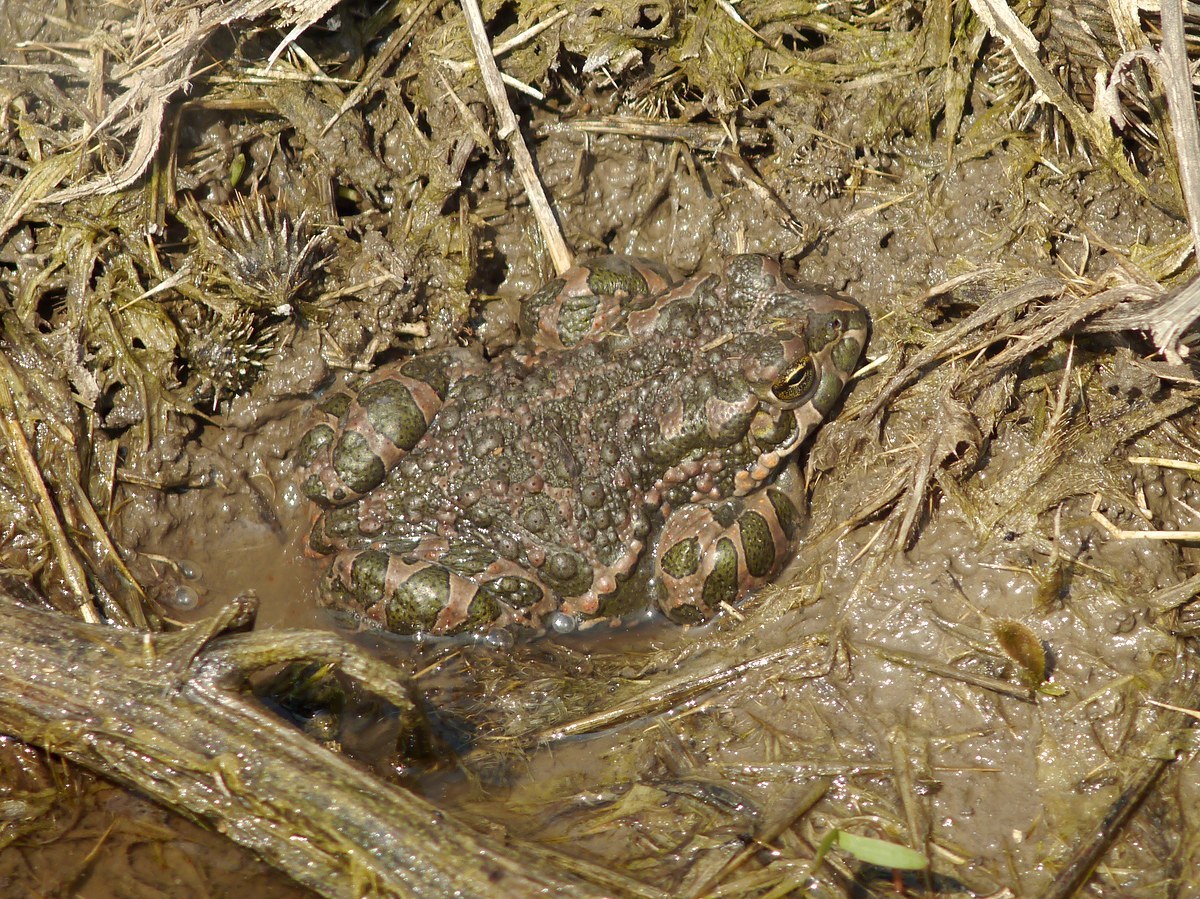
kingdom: Animalia
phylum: Chordata
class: Amphibia
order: Anura
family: Bufonidae
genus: Bufotes
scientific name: Bufotes viridis
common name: European green toad
